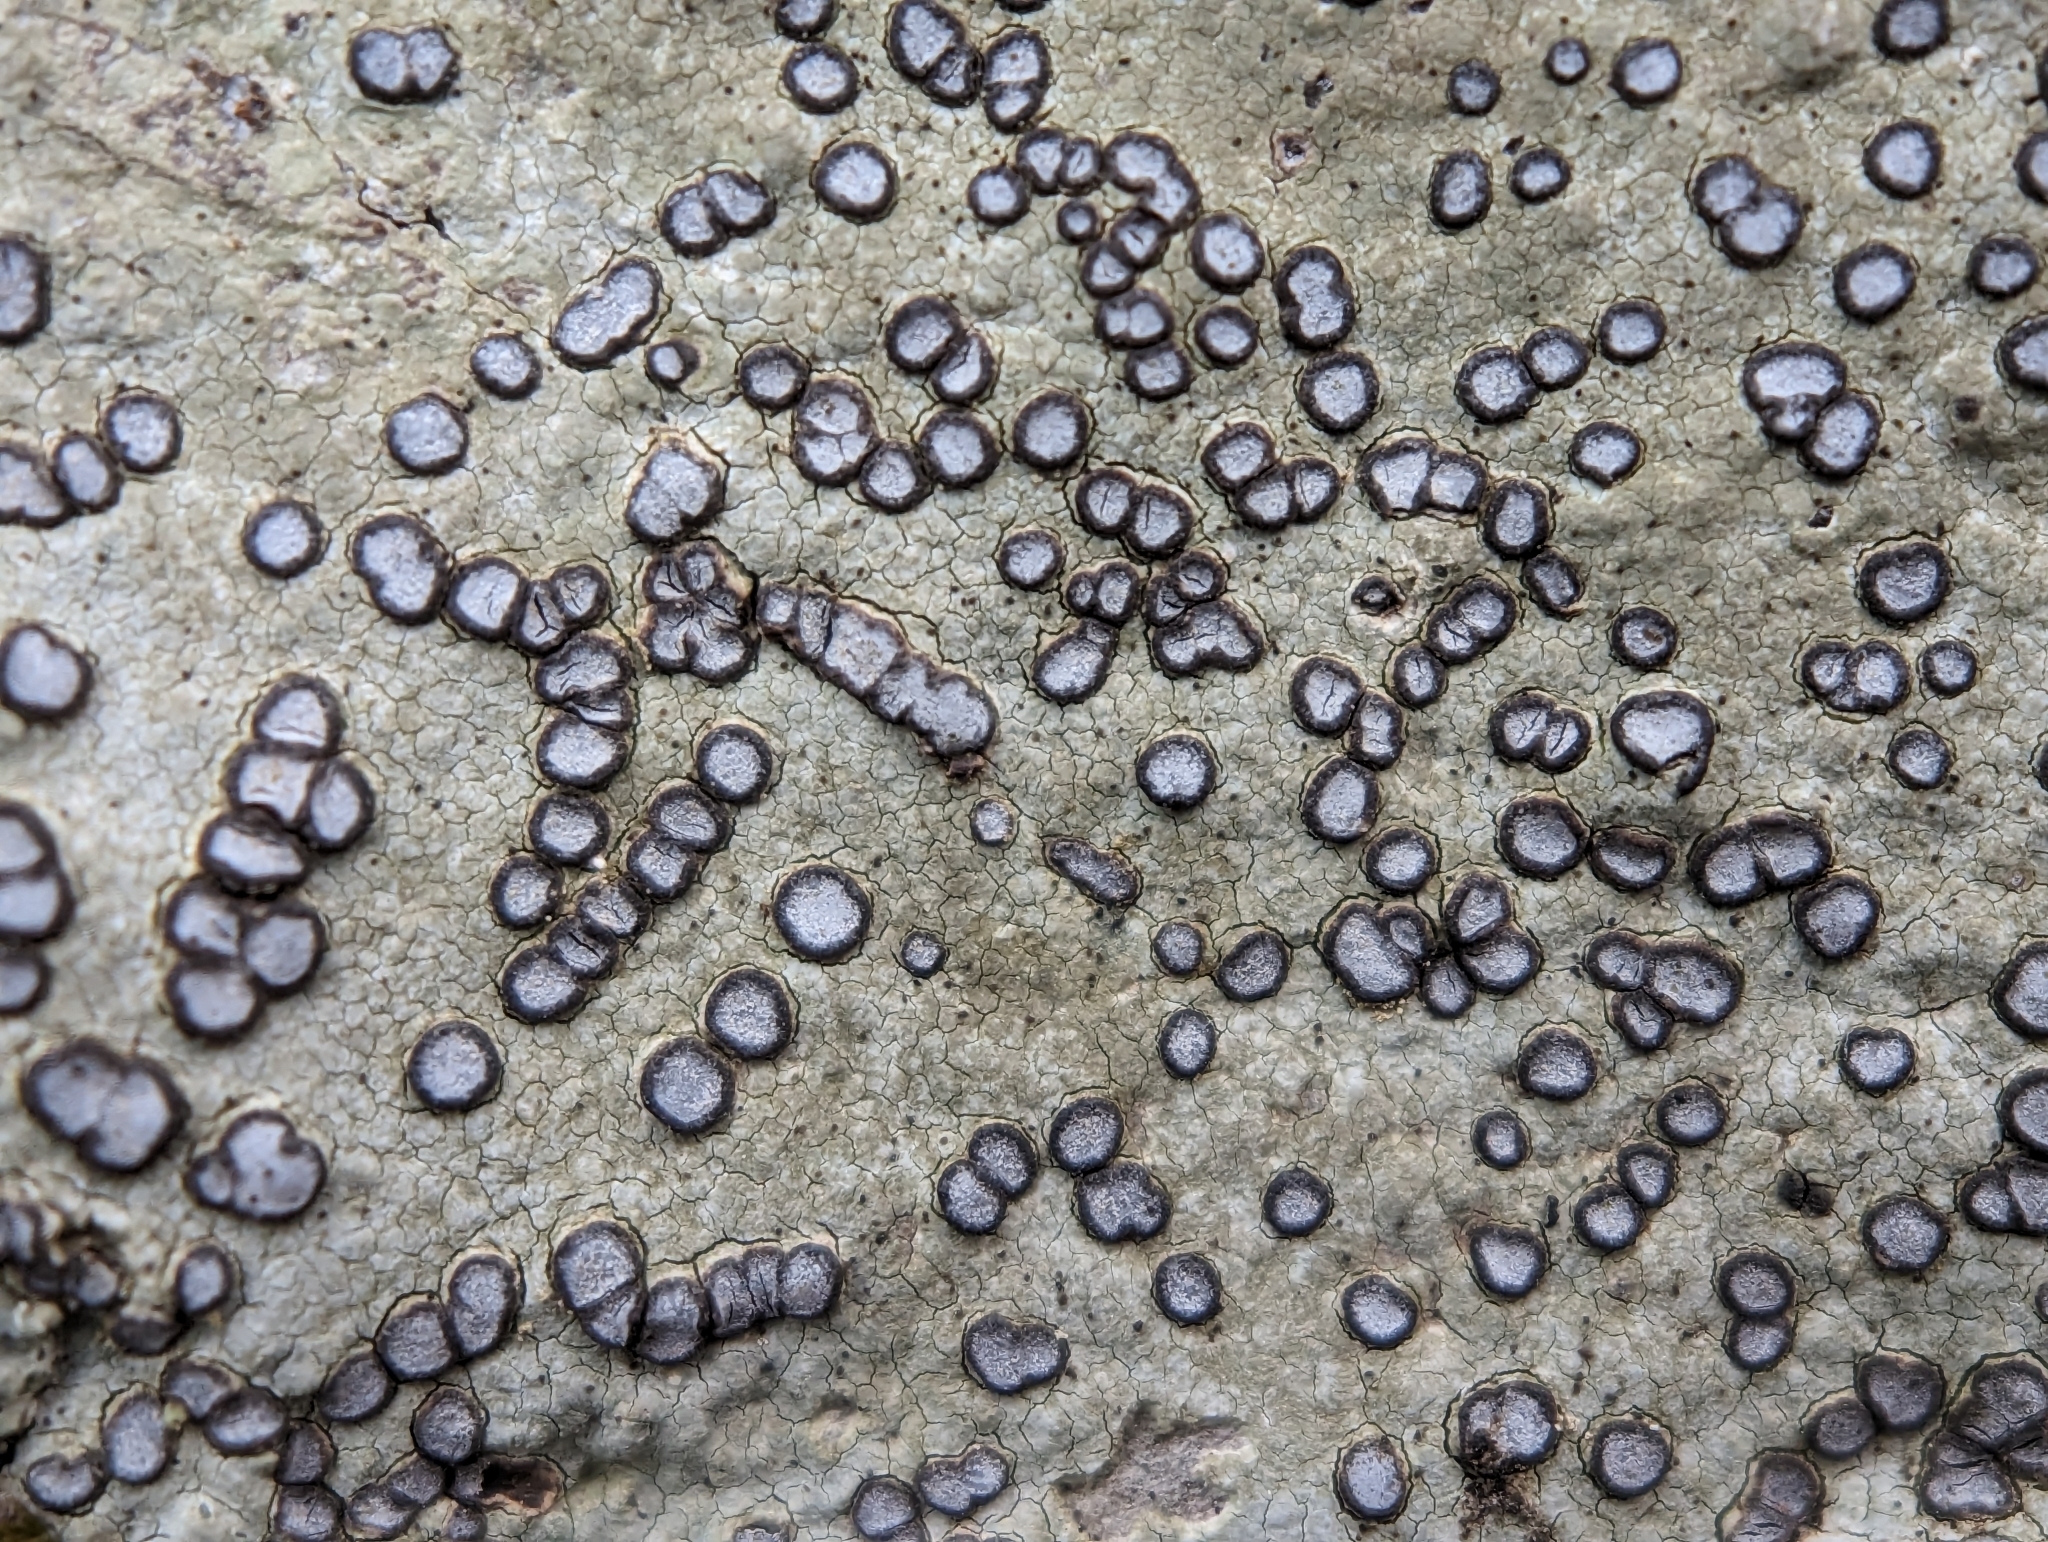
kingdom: Fungi
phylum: Ascomycota
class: Lecanoromycetes
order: Lecideales
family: Lecideaceae
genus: Porpidia
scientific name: Porpidia albocaerulescens
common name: Smokey-eyed boulder lichen
